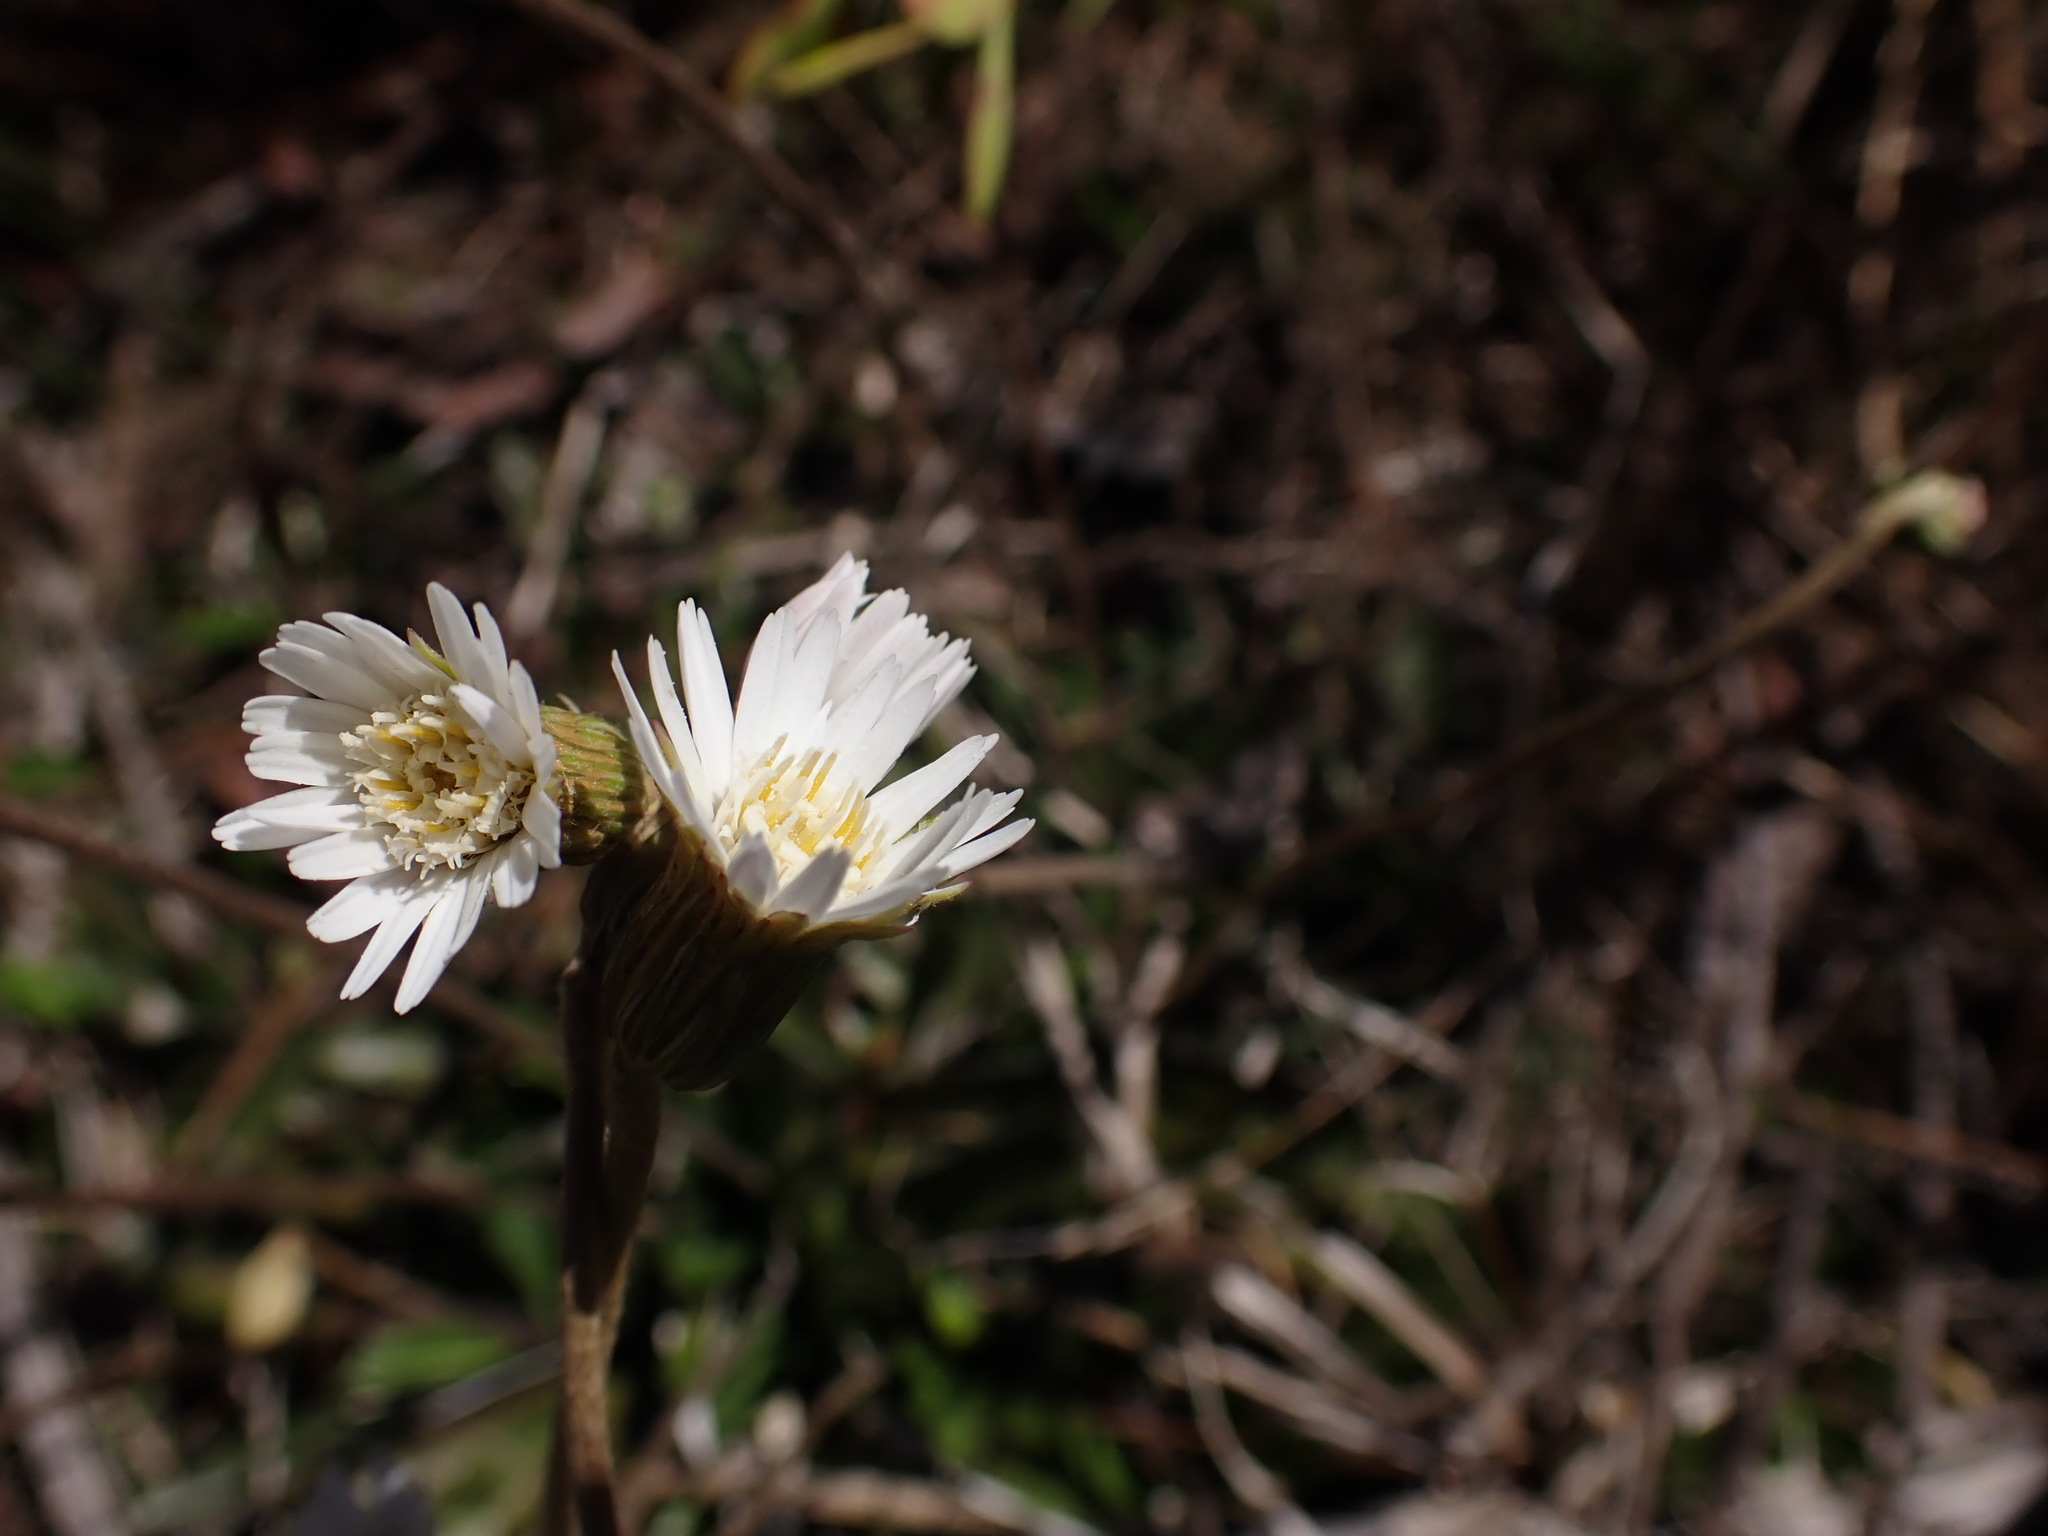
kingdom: Plantae
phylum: Tracheophyta
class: Magnoliopsida
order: Asterales
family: Asteraceae
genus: Chaptalia
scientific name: Chaptalia tomentosa
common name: Woolly sunbonnet
